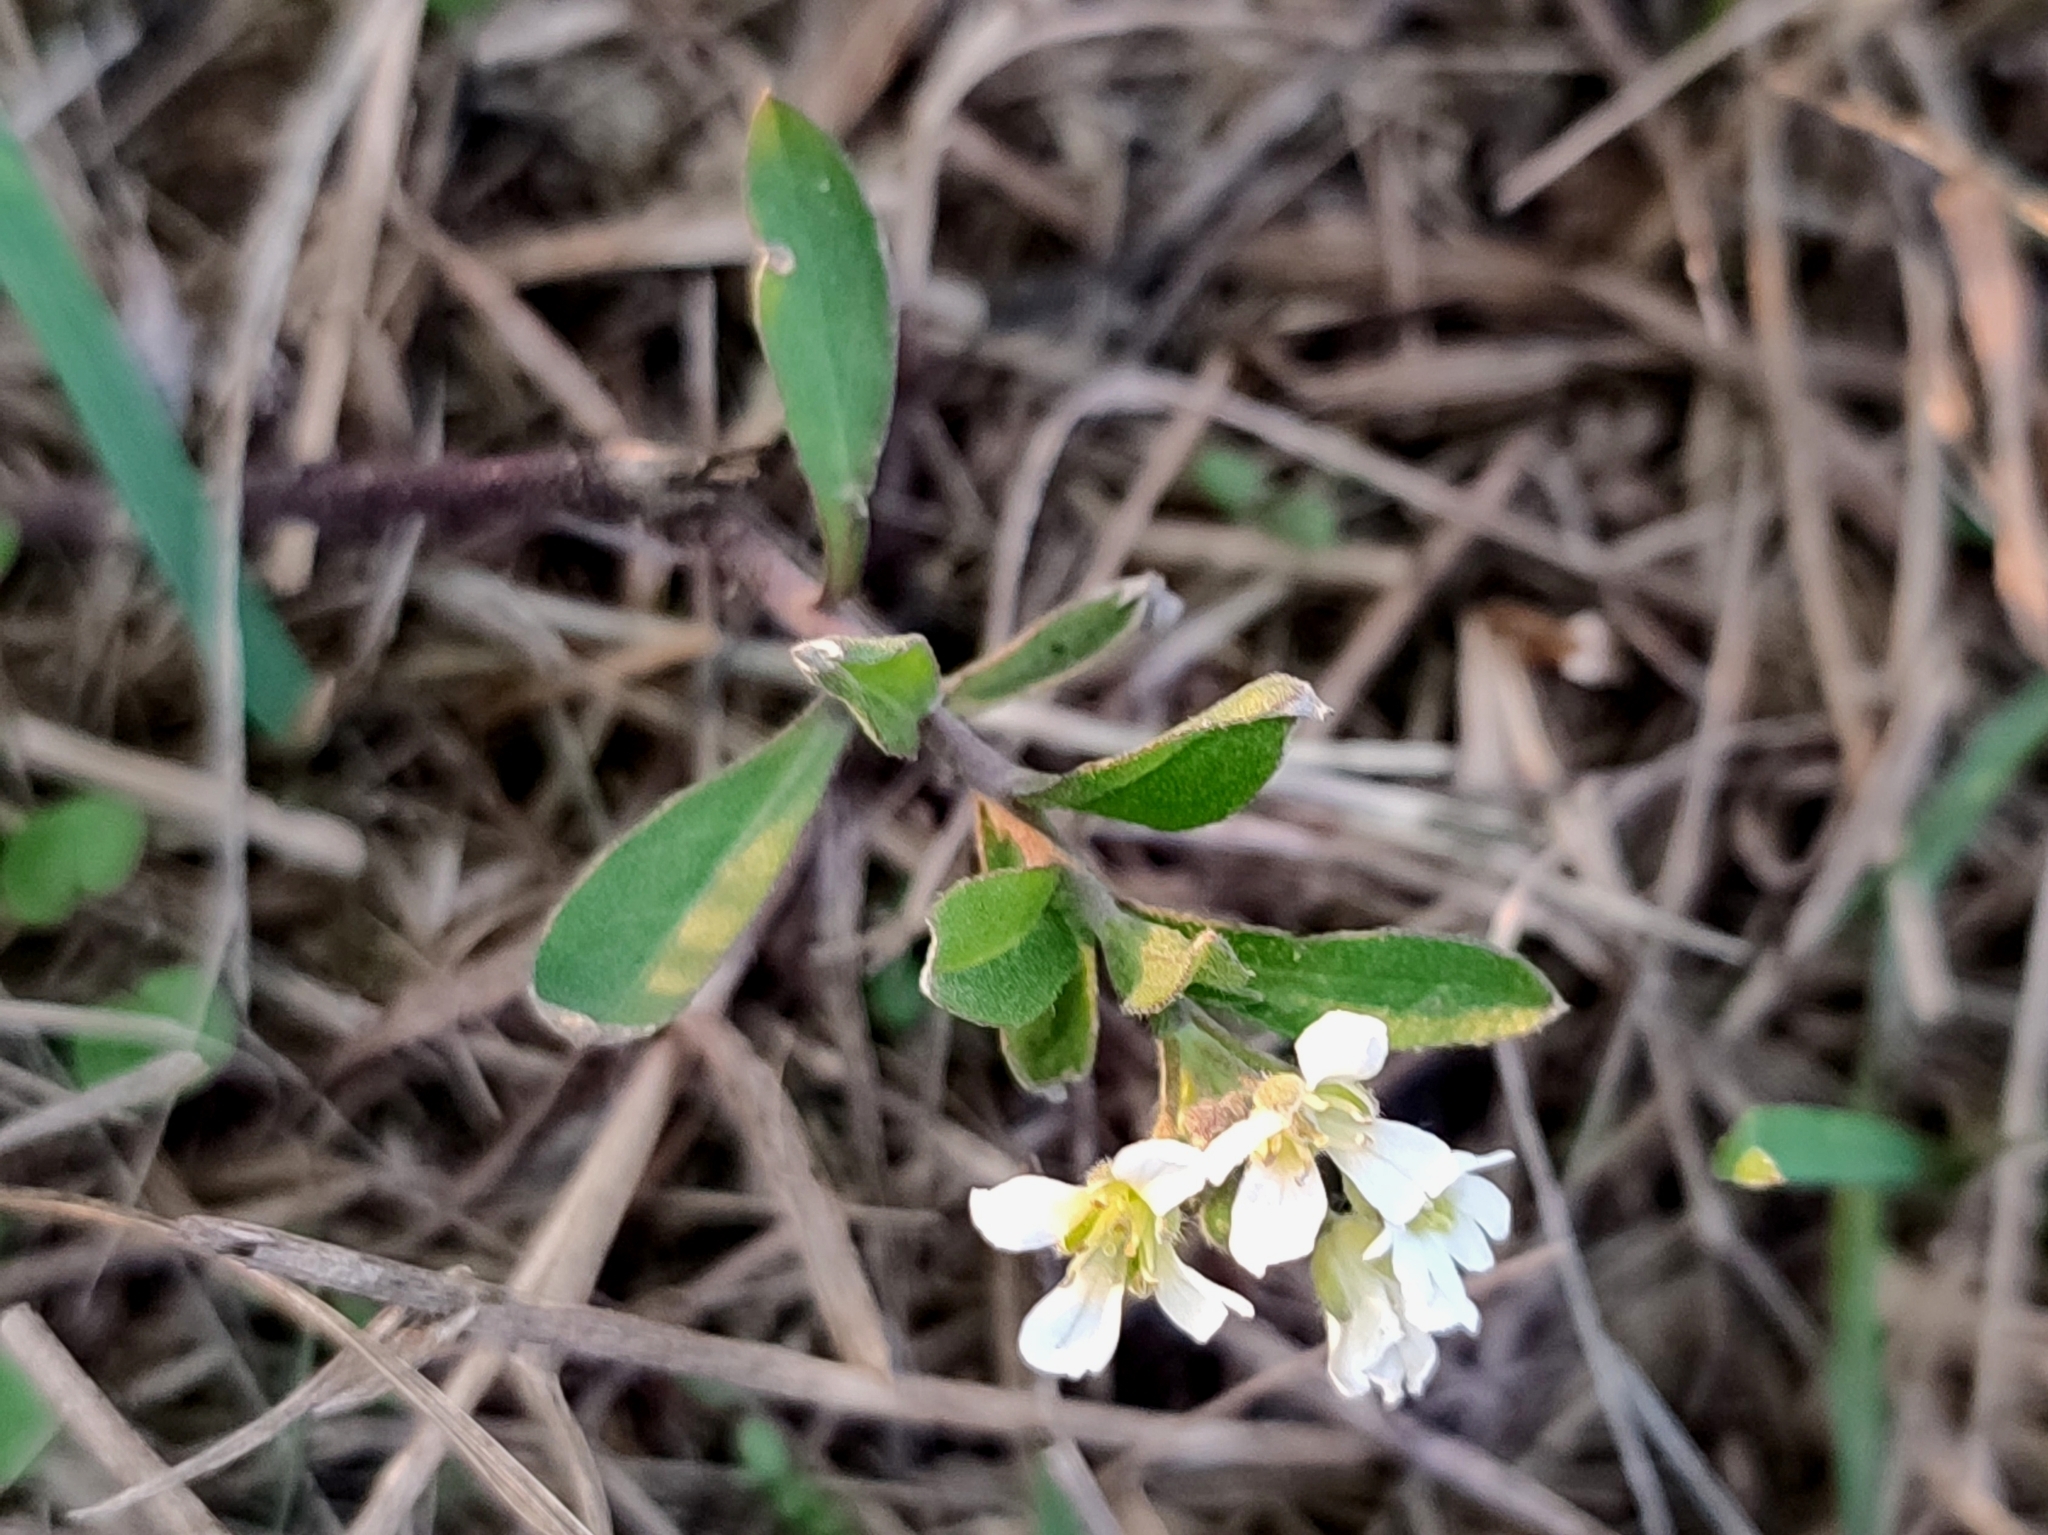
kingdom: Plantae
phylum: Tracheophyta
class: Magnoliopsida
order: Brassicales
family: Brassicaceae
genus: Berteroa
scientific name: Berteroa incana
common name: Hoary alison
